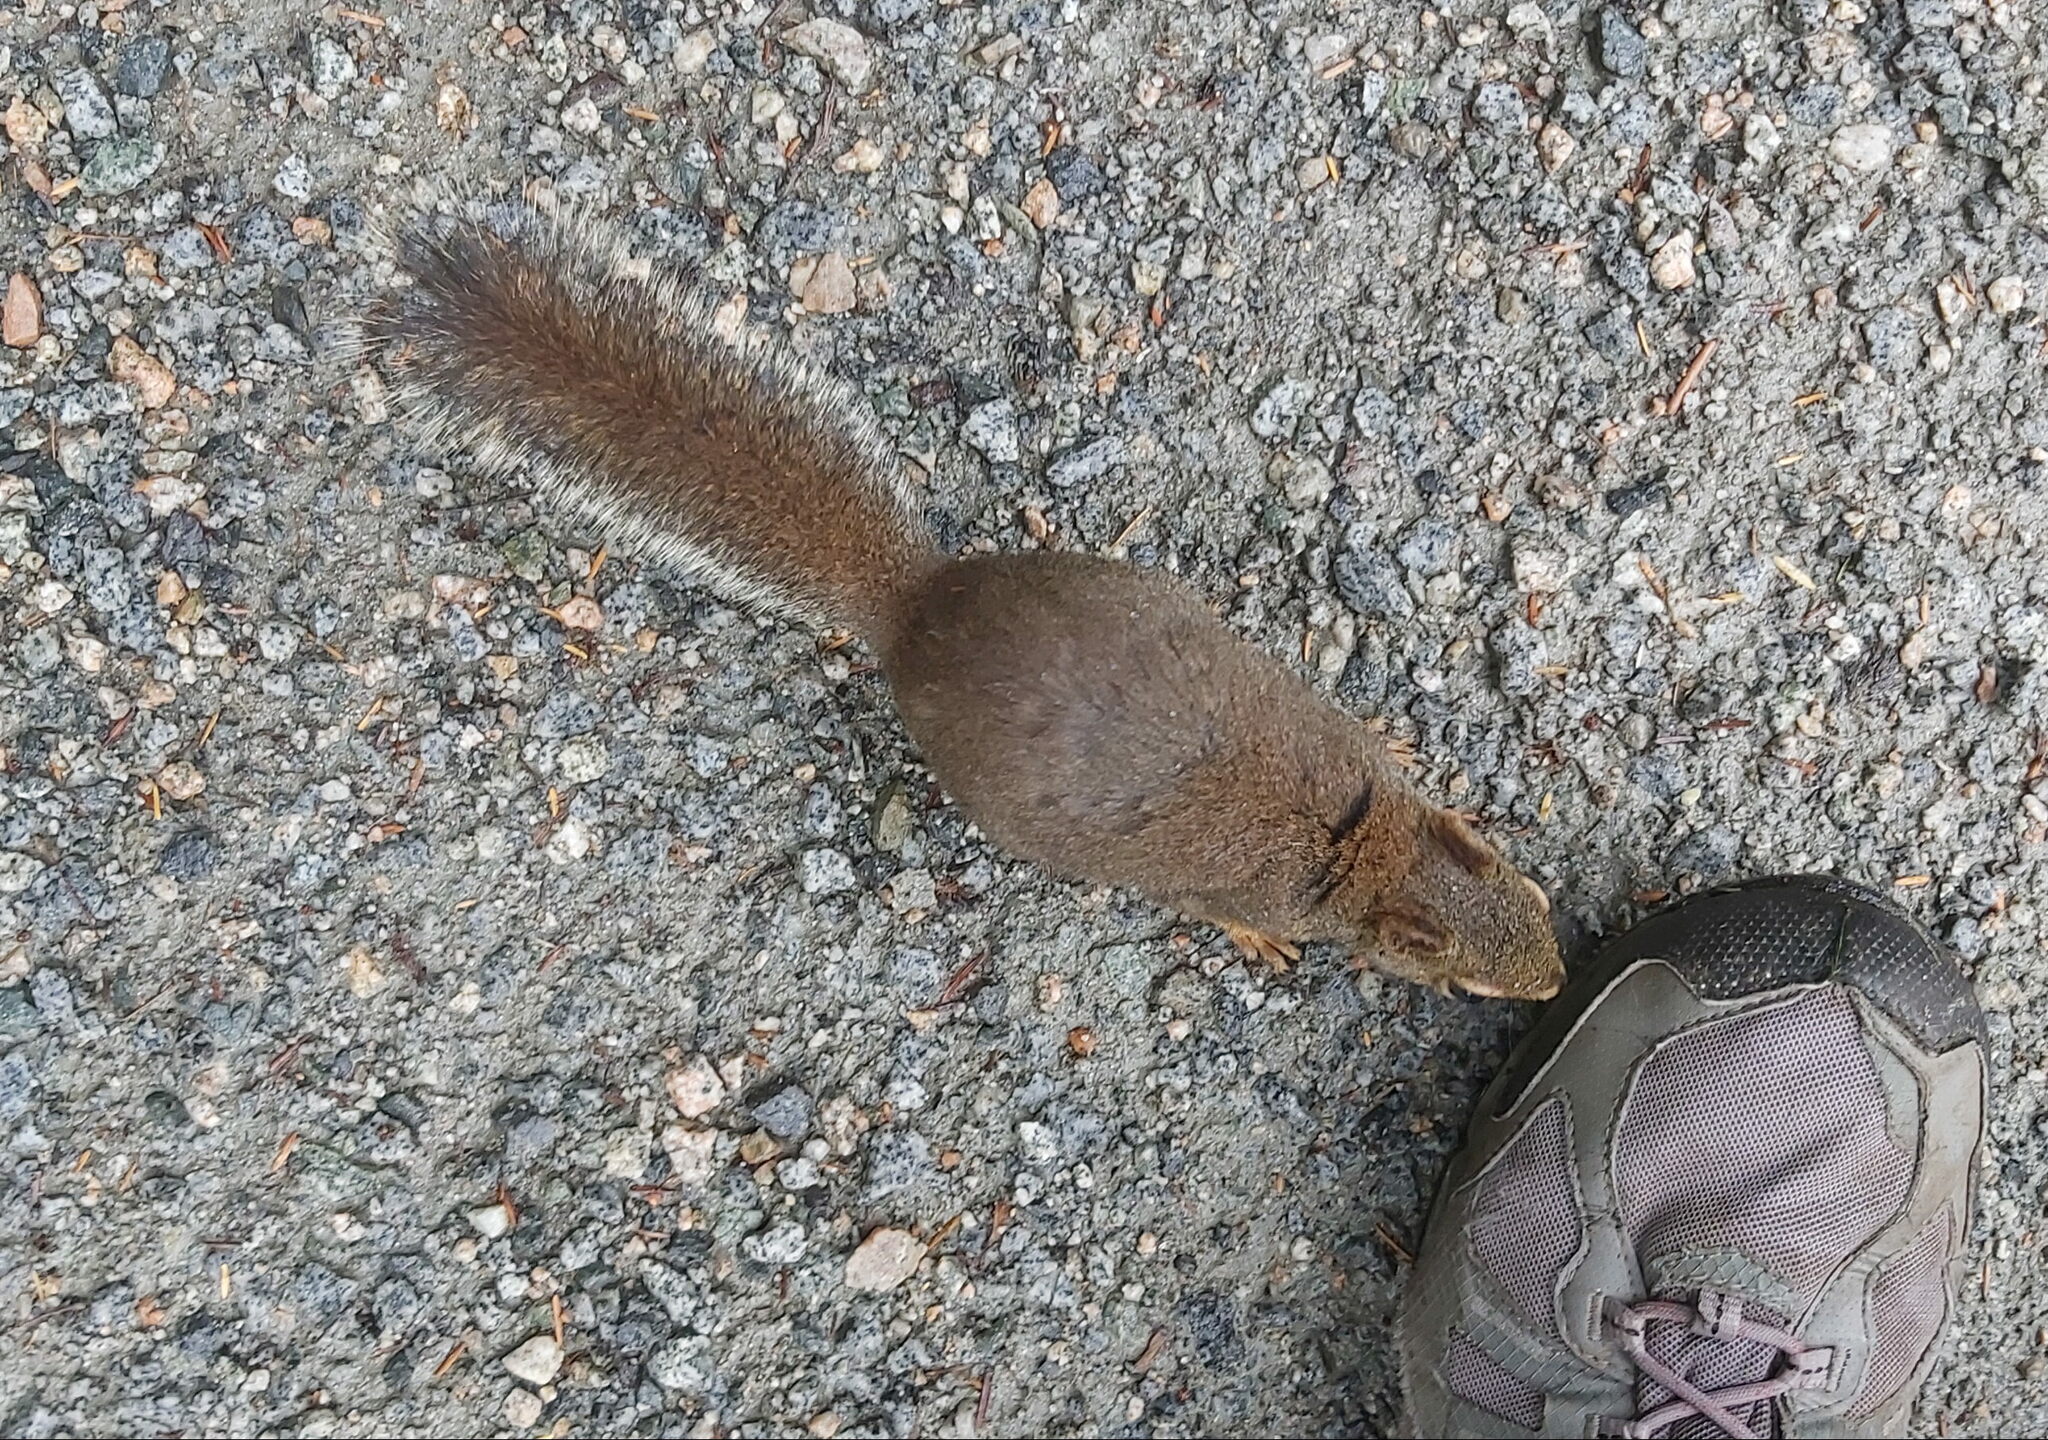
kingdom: Animalia
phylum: Chordata
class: Mammalia
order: Rodentia
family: Sciuridae
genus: Tamiasciurus
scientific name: Tamiasciurus douglasii
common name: Douglas's squirrel
